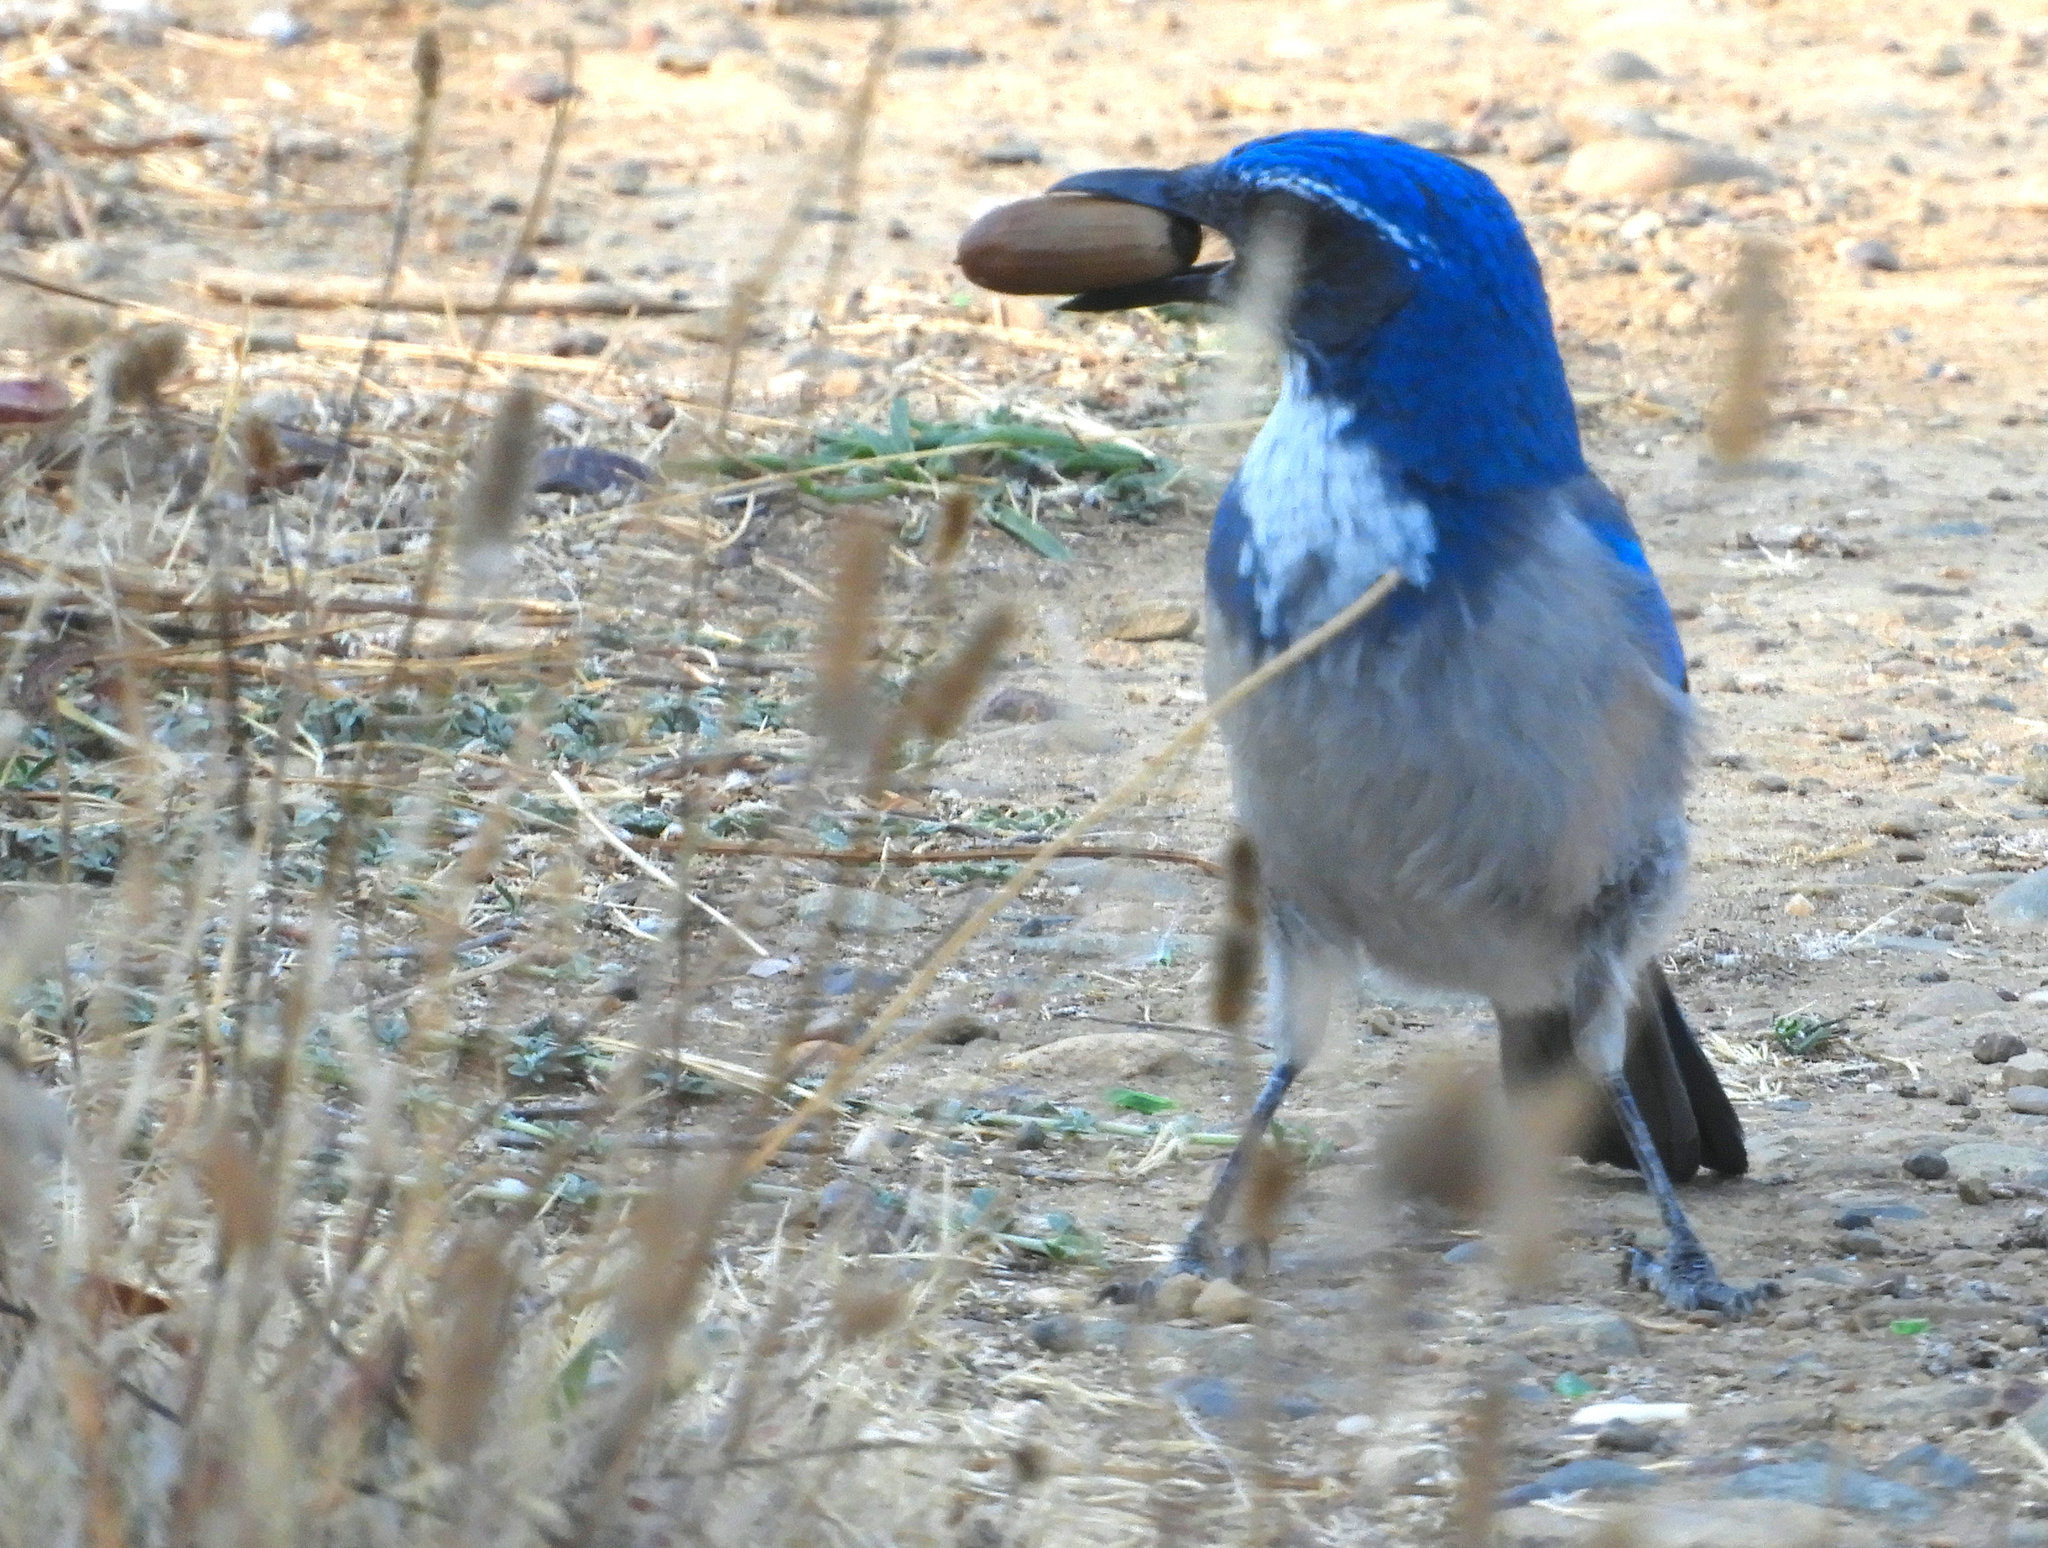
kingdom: Animalia
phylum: Chordata
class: Aves
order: Passeriformes
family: Corvidae
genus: Aphelocoma
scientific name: Aphelocoma californica
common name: California scrub-jay
